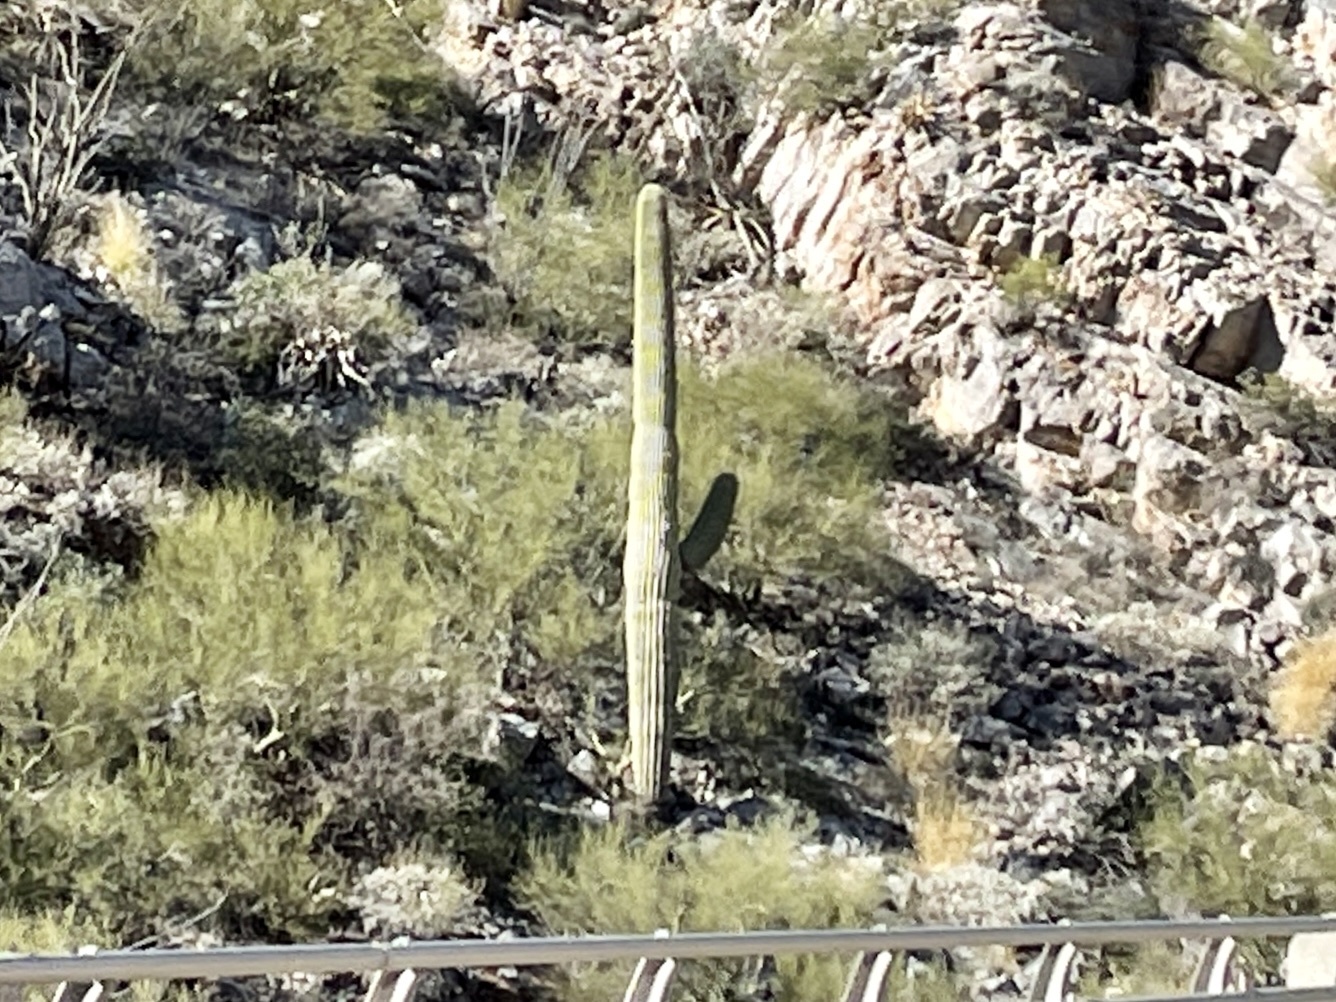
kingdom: Plantae
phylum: Tracheophyta
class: Magnoliopsida
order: Caryophyllales
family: Cactaceae
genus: Carnegiea
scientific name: Carnegiea gigantea
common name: Saguaro
